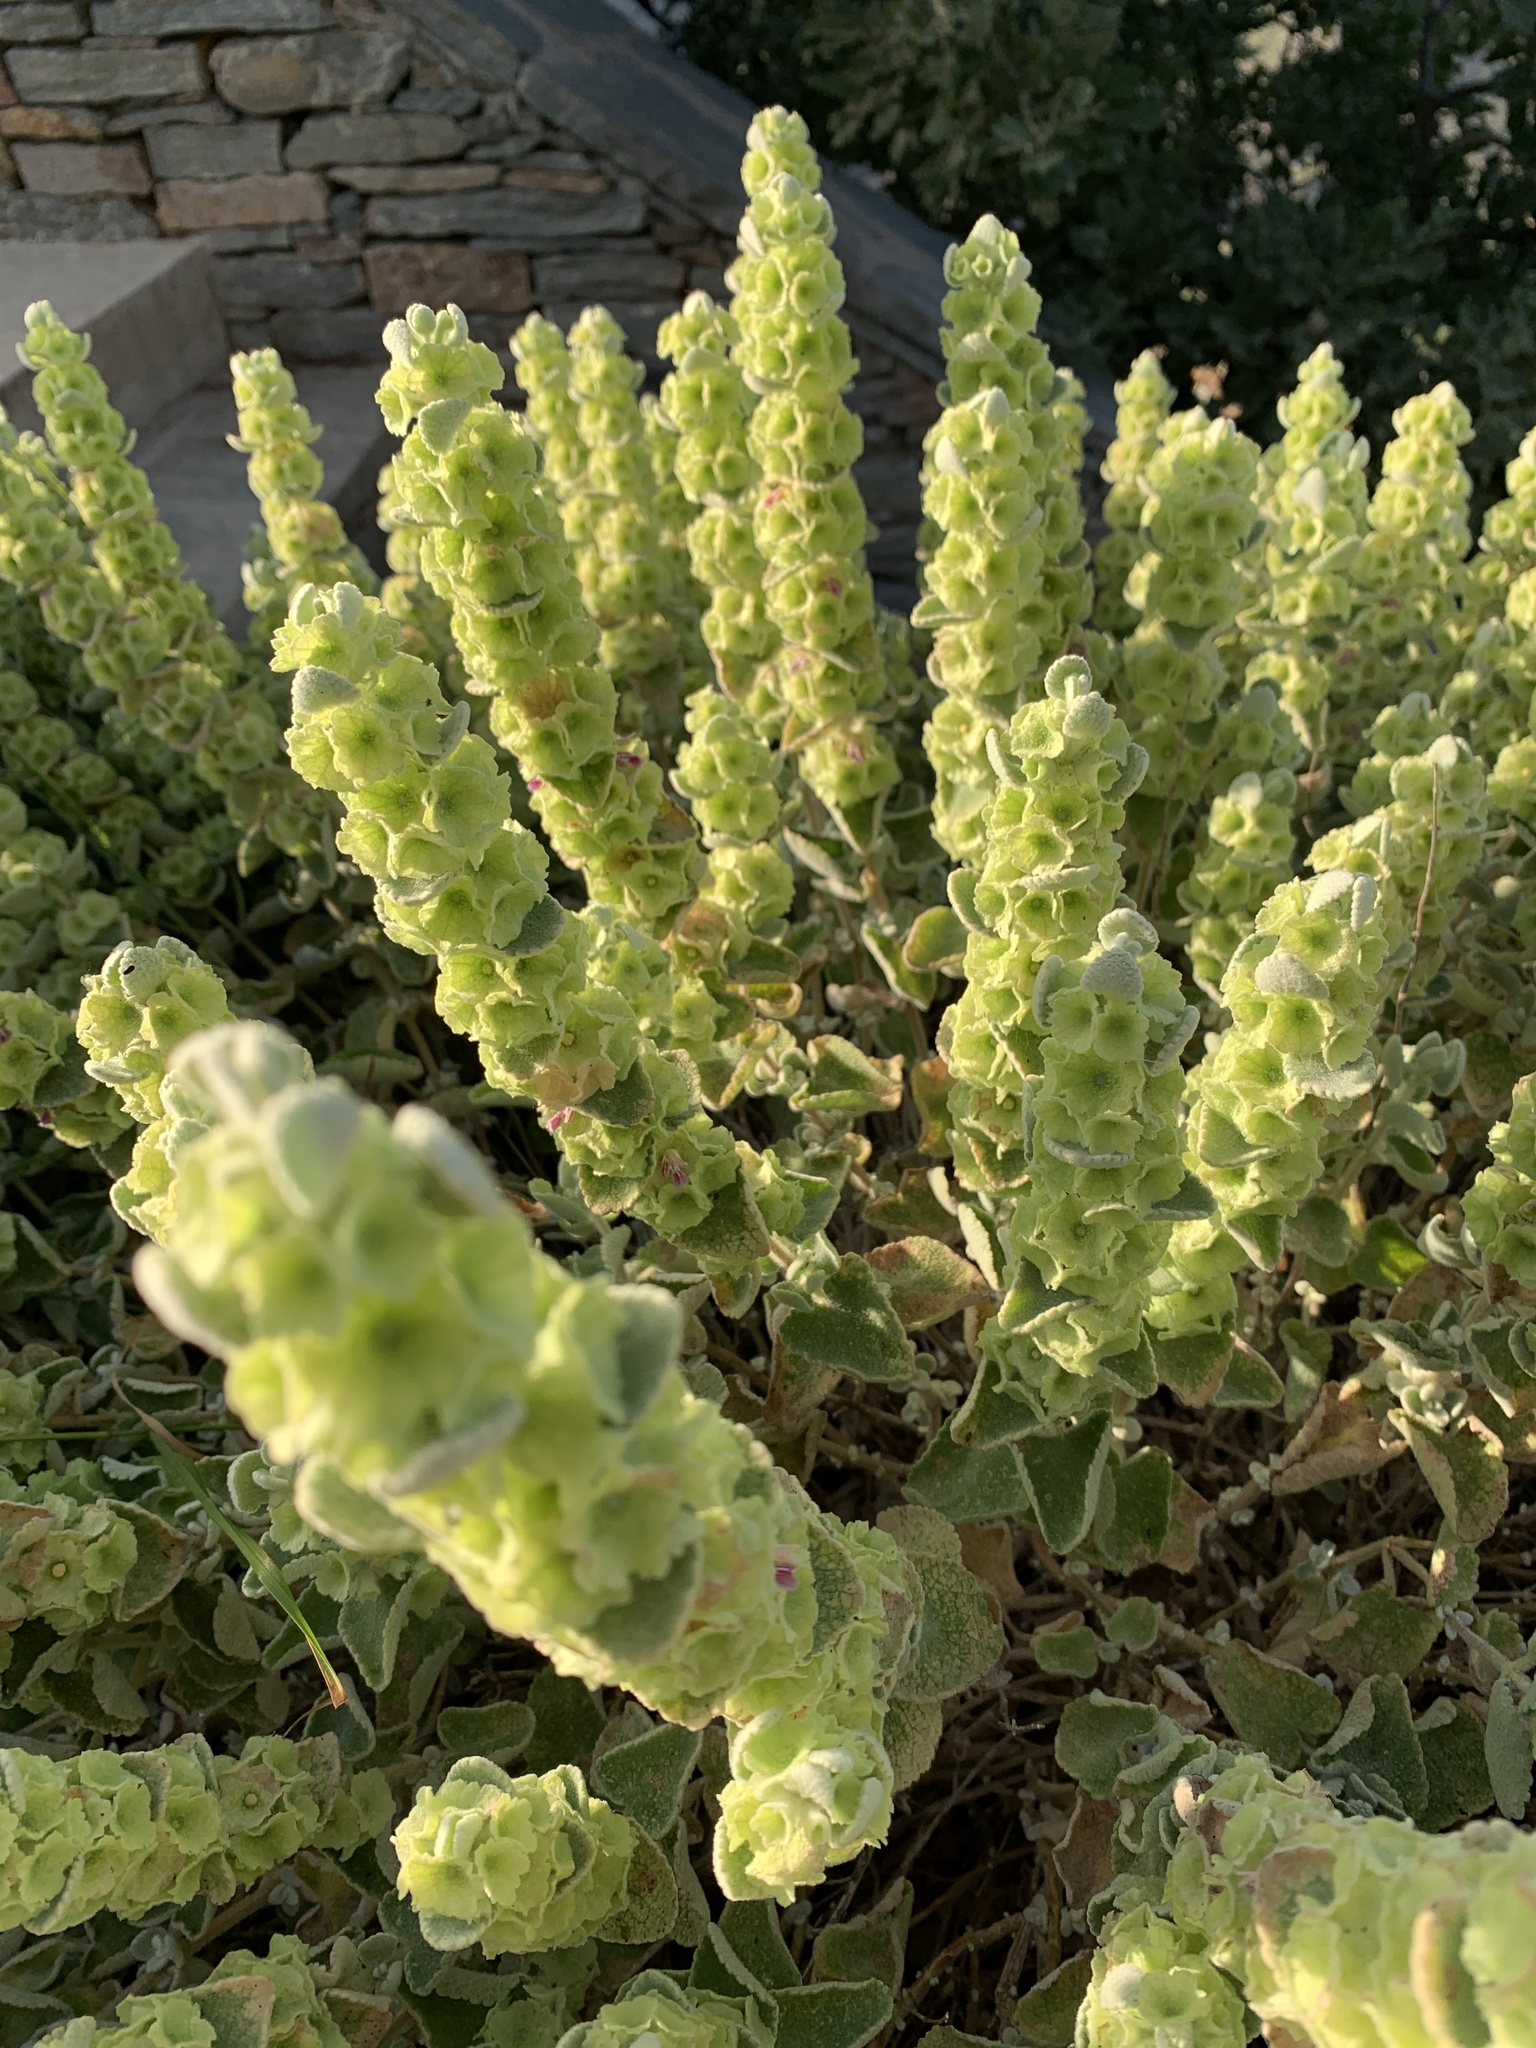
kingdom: Plantae
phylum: Tracheophyta
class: Magnoliopsida
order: Lamiales
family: Lamiaceae
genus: Pseudodictamnus
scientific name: Pseudodictamnus acetabulosus
